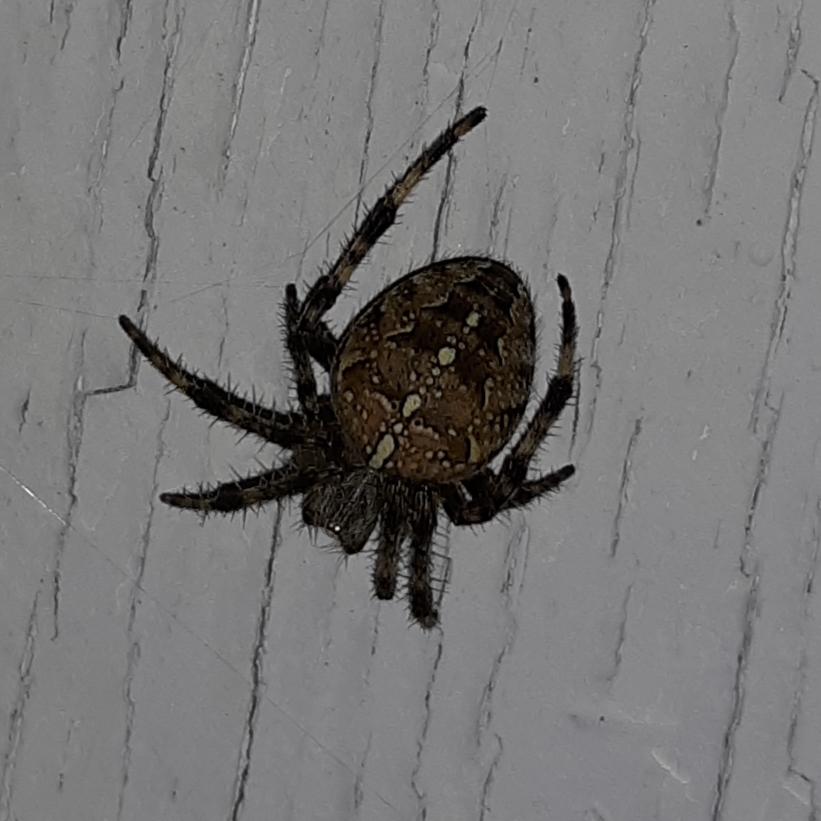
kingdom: Animalia
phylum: Arthropoda
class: Arachnida
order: Araneae
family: Araneidae
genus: Araneus
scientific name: Araneus diadematus
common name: Cross orbweaver
